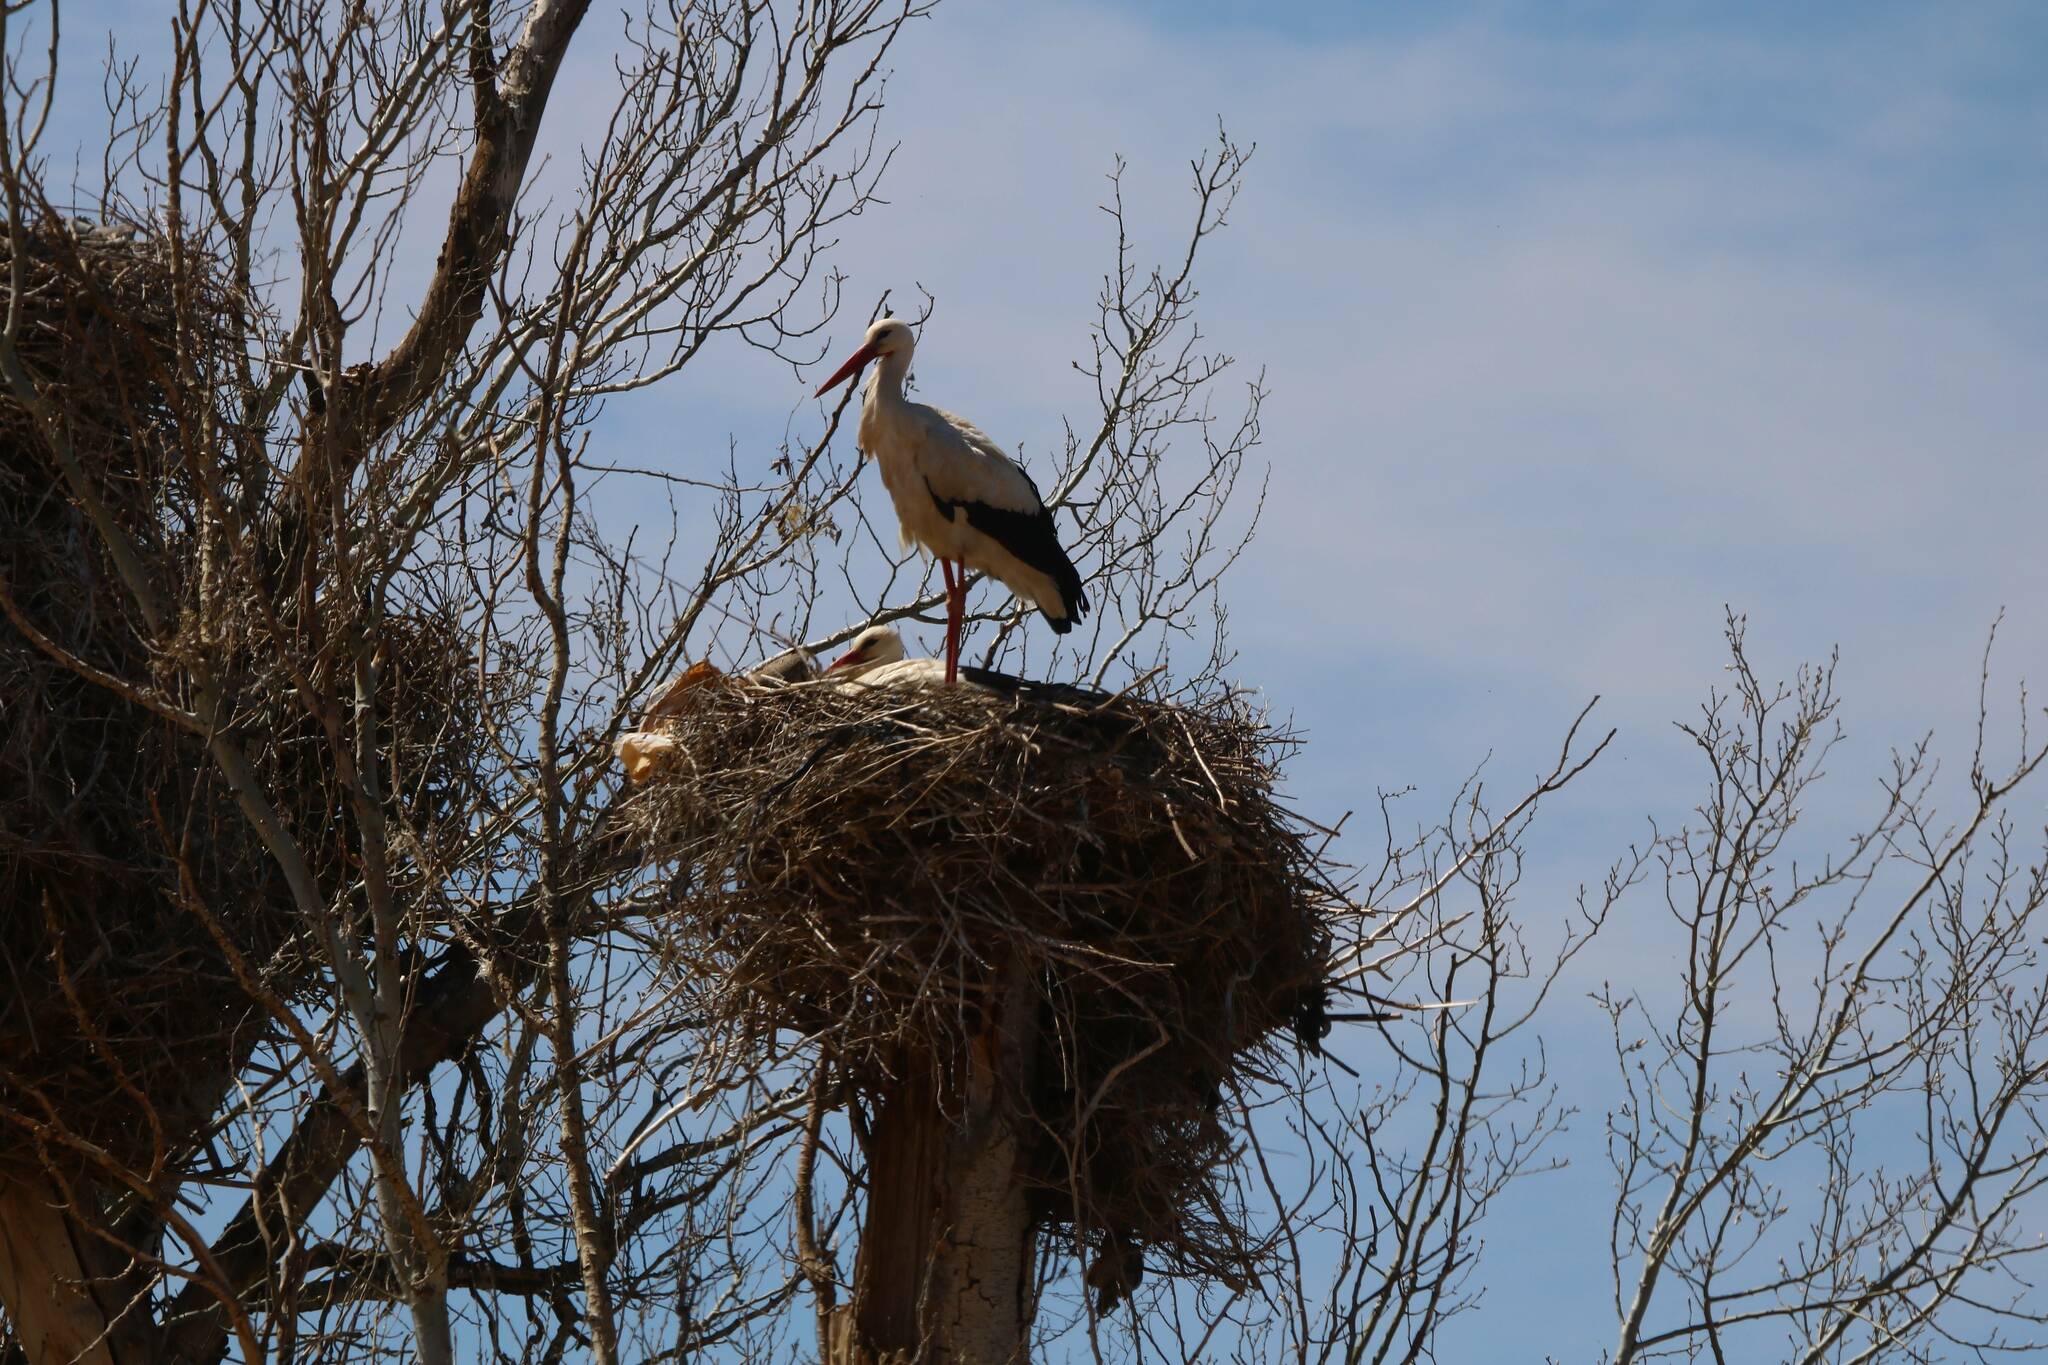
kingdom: Animalia
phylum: Chordata
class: Aves
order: Ciconiiformes
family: Ciconiidae
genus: Ciconia
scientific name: Ciconia ciconia
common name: White stork
